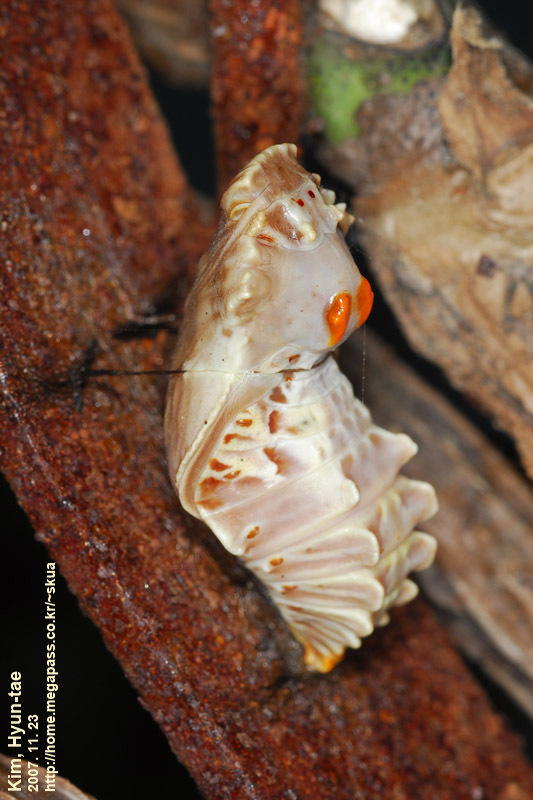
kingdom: Animalia
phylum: Arthropoda
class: Insecta
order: Lepidoptera
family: Papilionidae
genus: Byasa
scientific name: Byasa alcinous
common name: Chinese windmill
